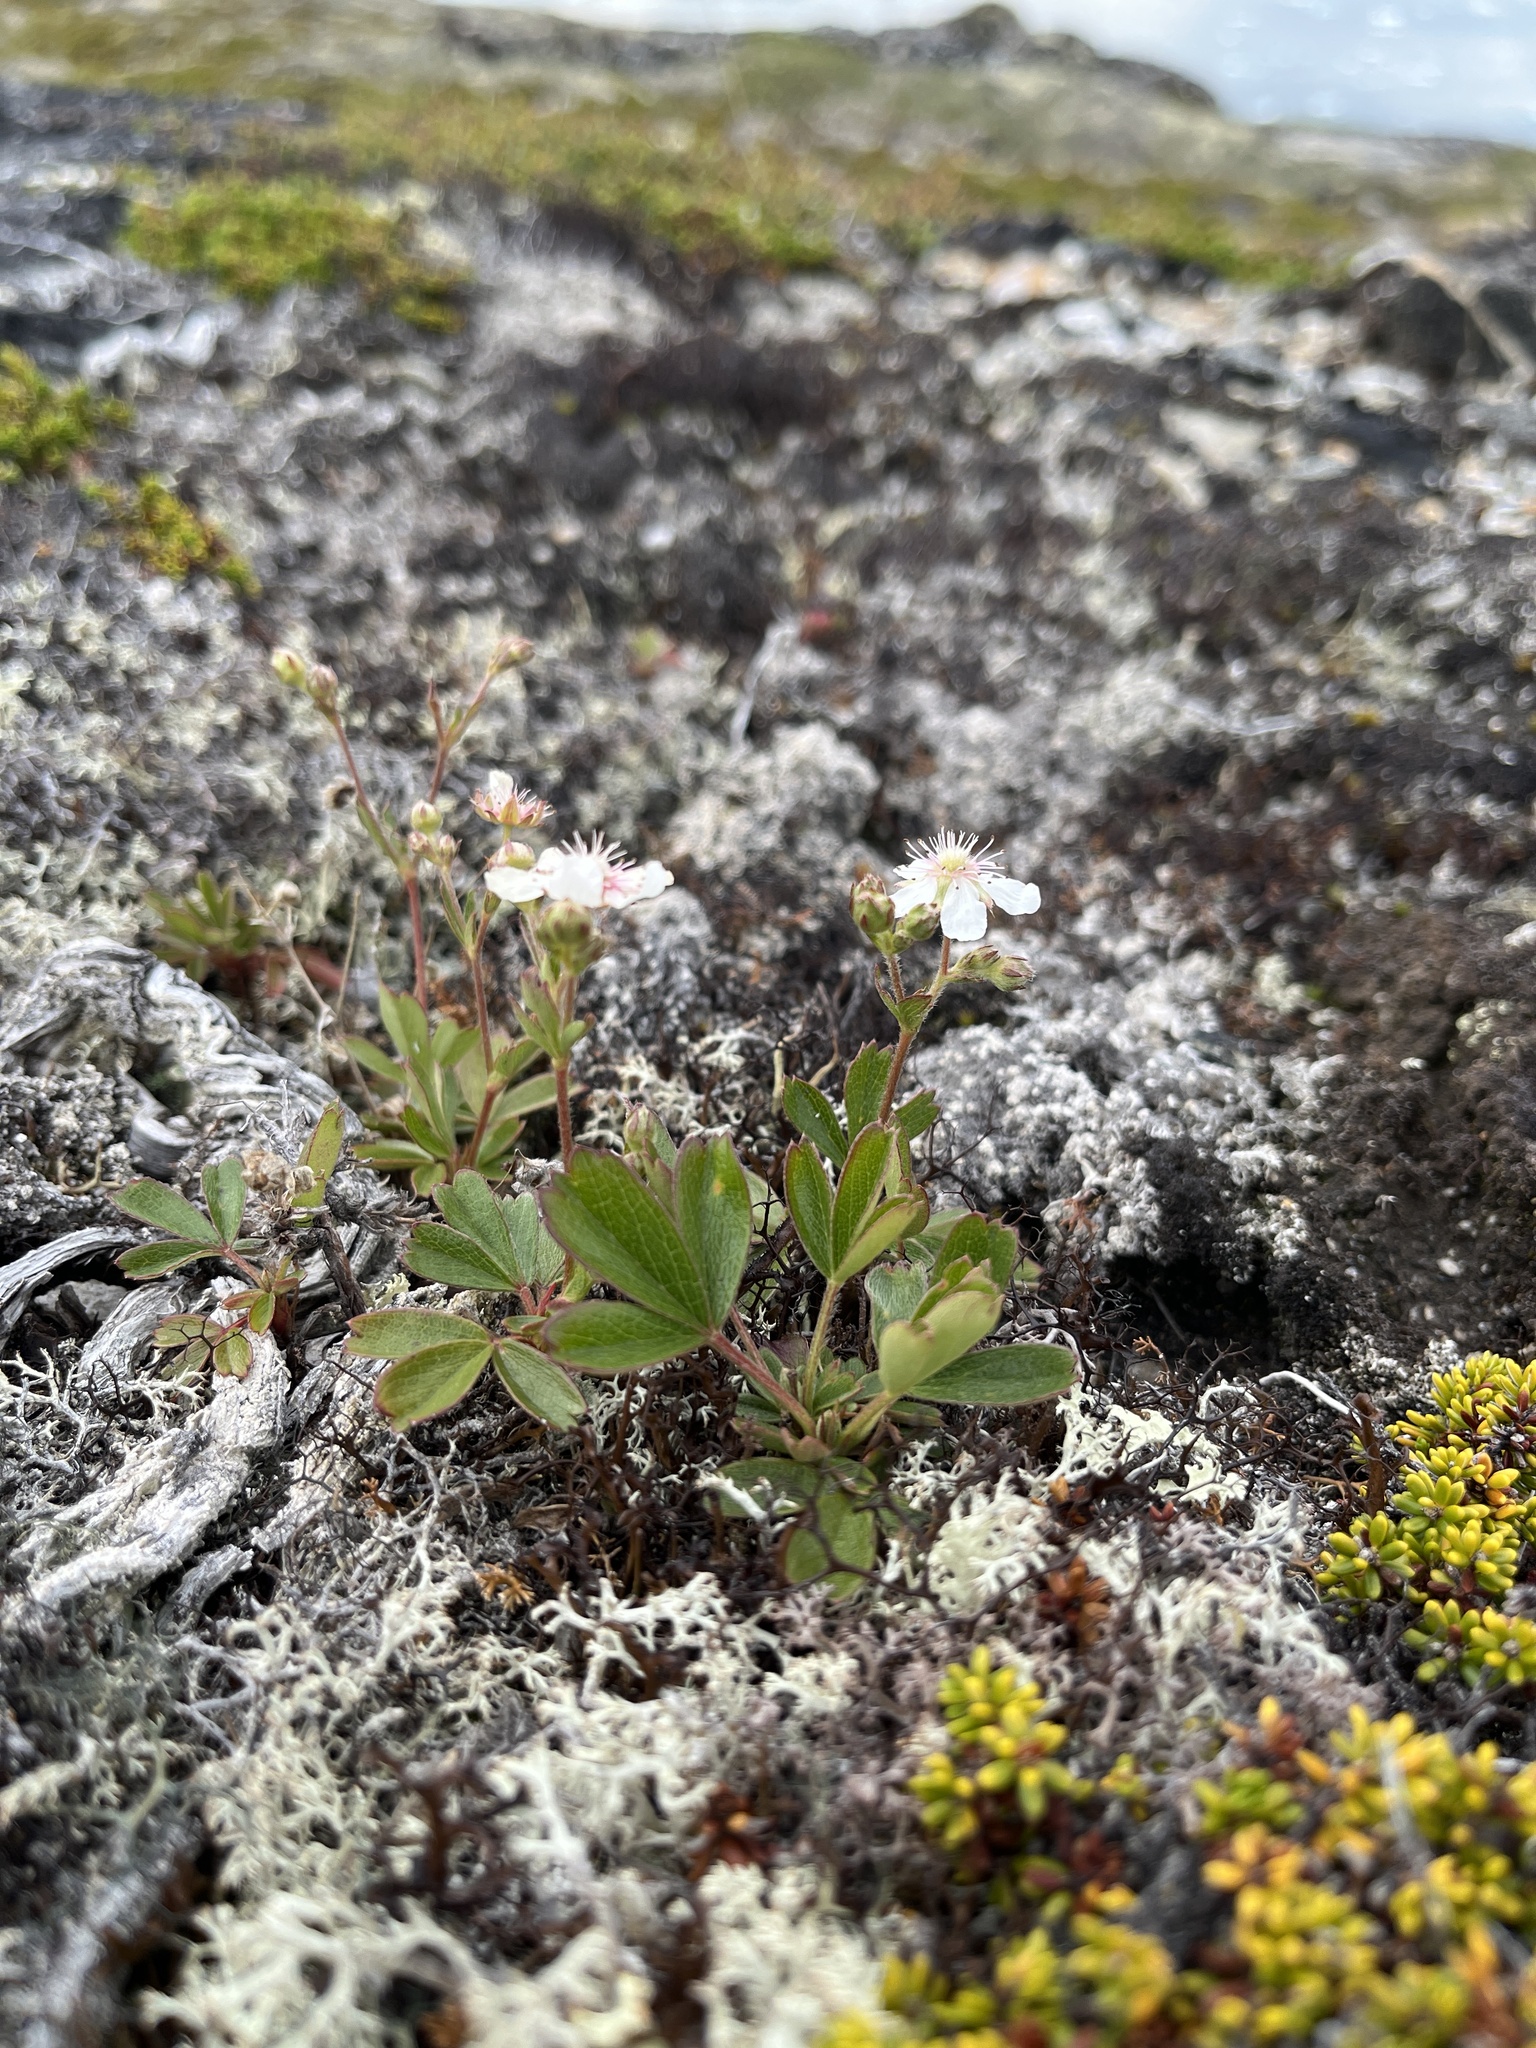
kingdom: Plantae
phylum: Tracheophyta
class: Magnoliopsida
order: Rosales
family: Rosaceae
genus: Sibbaldia
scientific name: Sibbaldia tridentata
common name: Three-toothed cinquefoil
